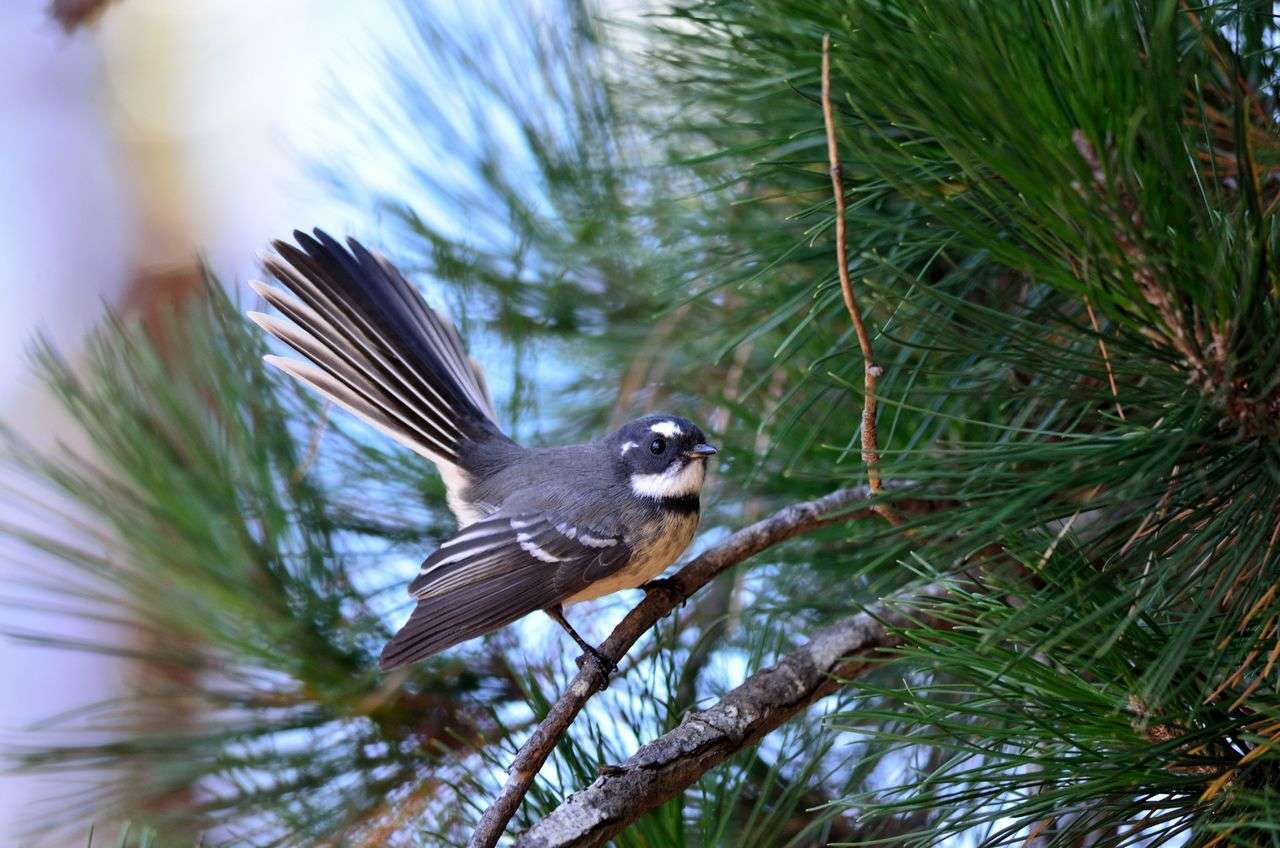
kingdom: Animalia
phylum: Chordata
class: Aves
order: Passeriformes
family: Rhipiduridae
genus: Rhipidura
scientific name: Rhipidura albiscapa
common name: Grey fantail
